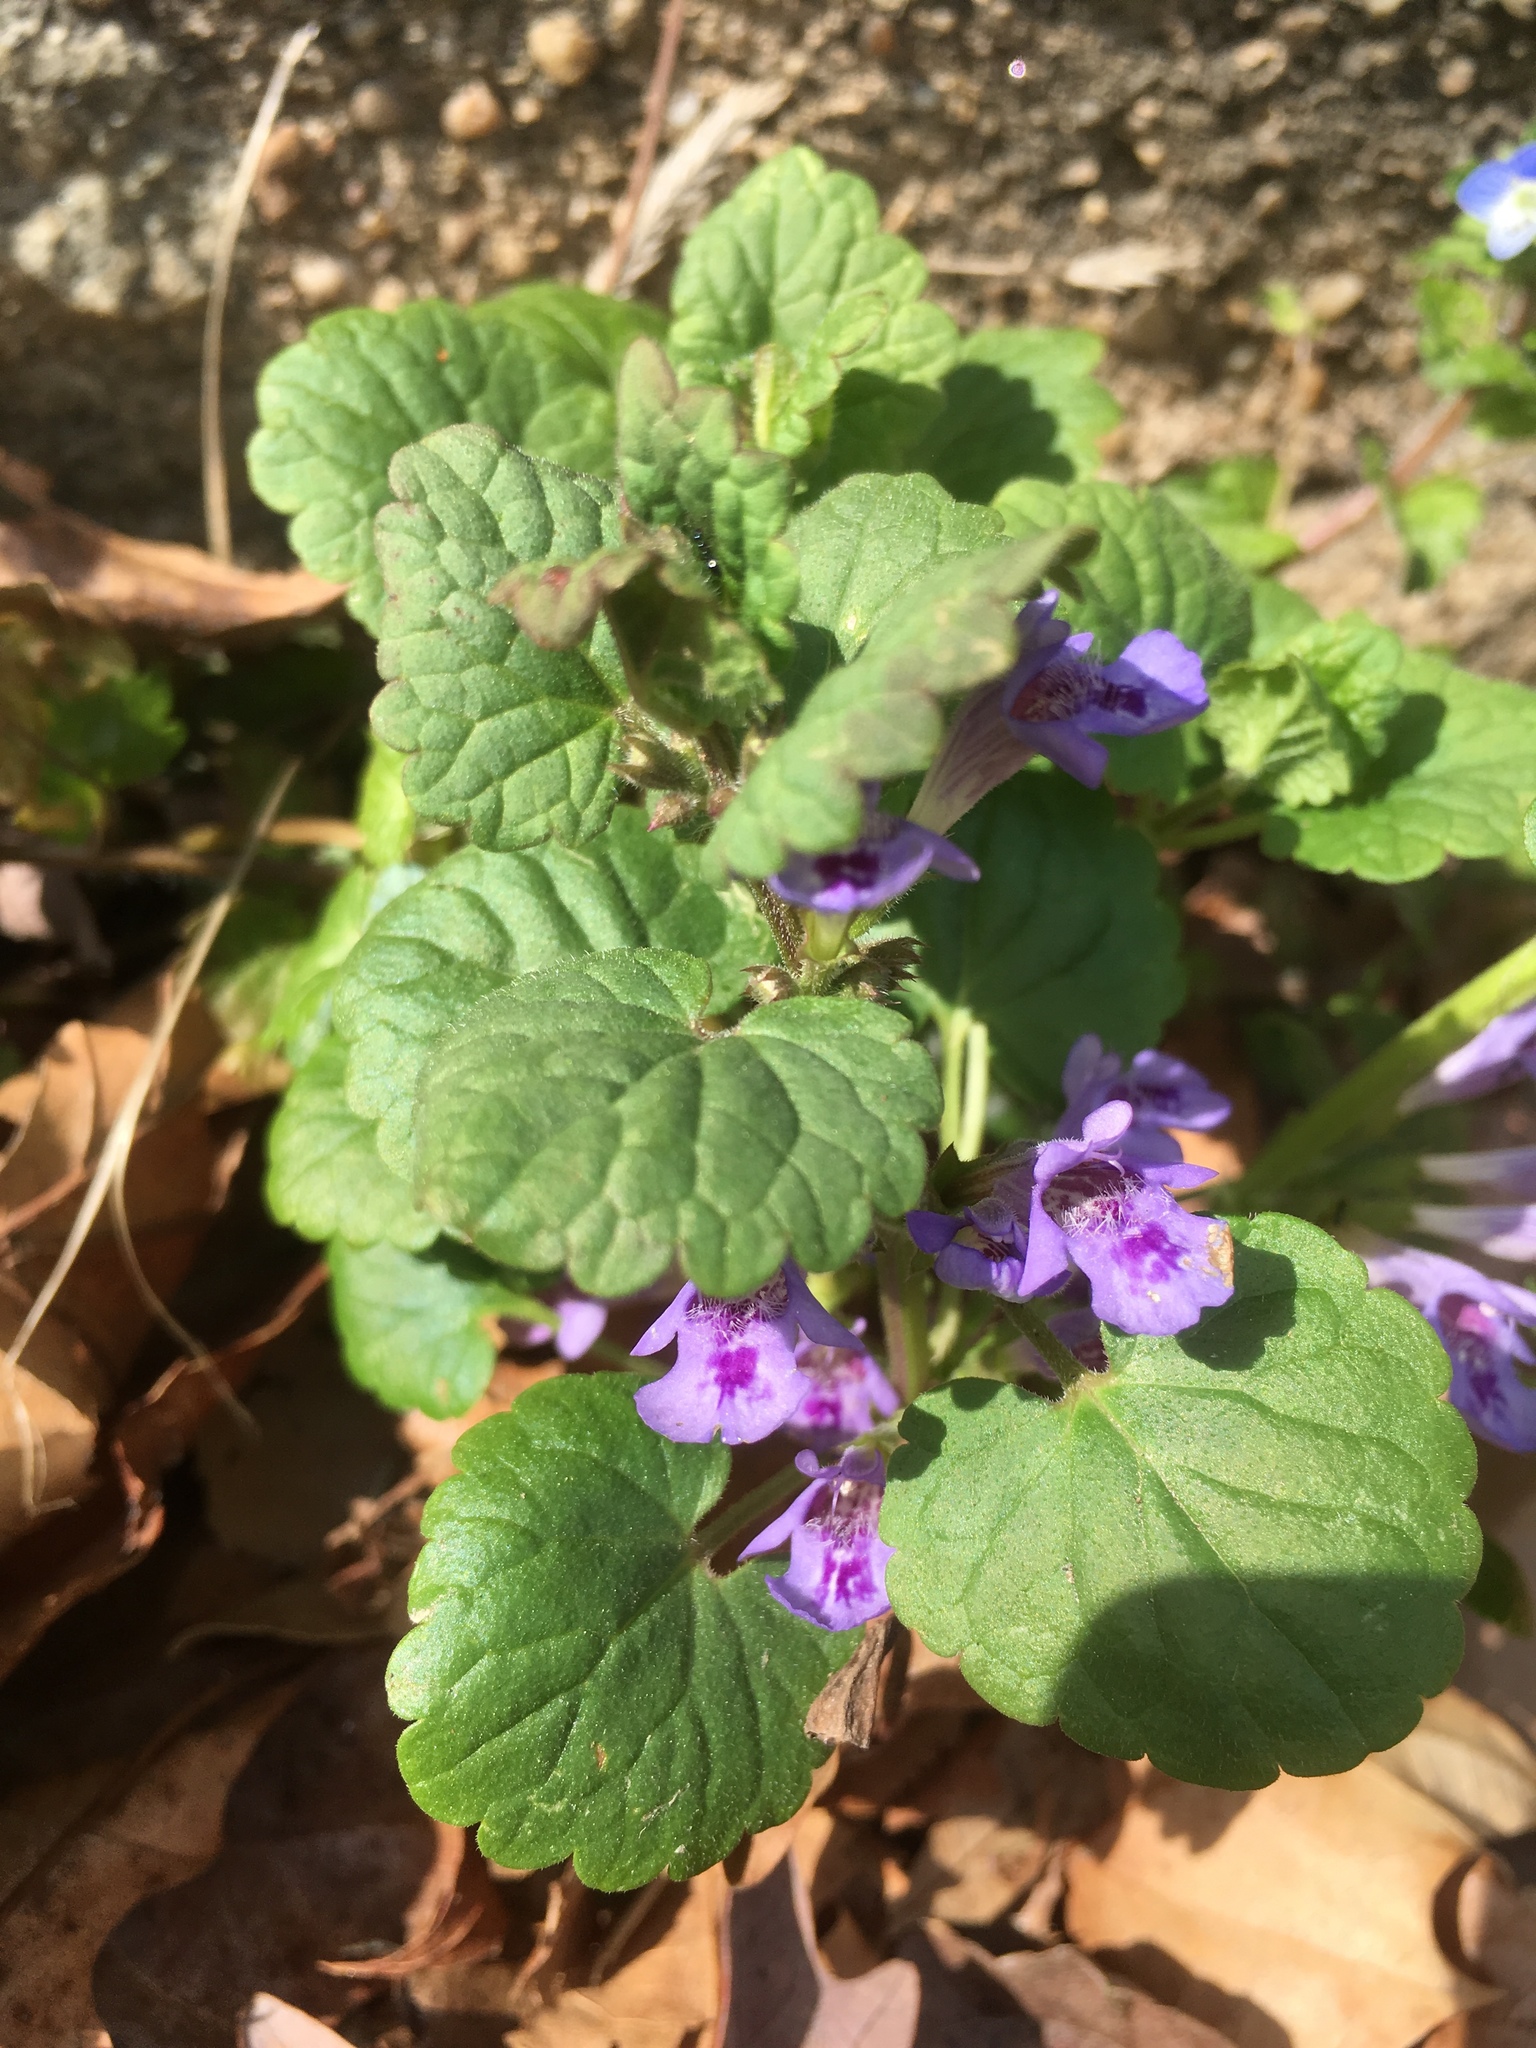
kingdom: Plantae
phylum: Tracheophyta
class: Magnoliopsida
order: Lamiales
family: Lamiaceae
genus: Glechoma
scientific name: Glechoma hederacea
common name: Ground ivy
